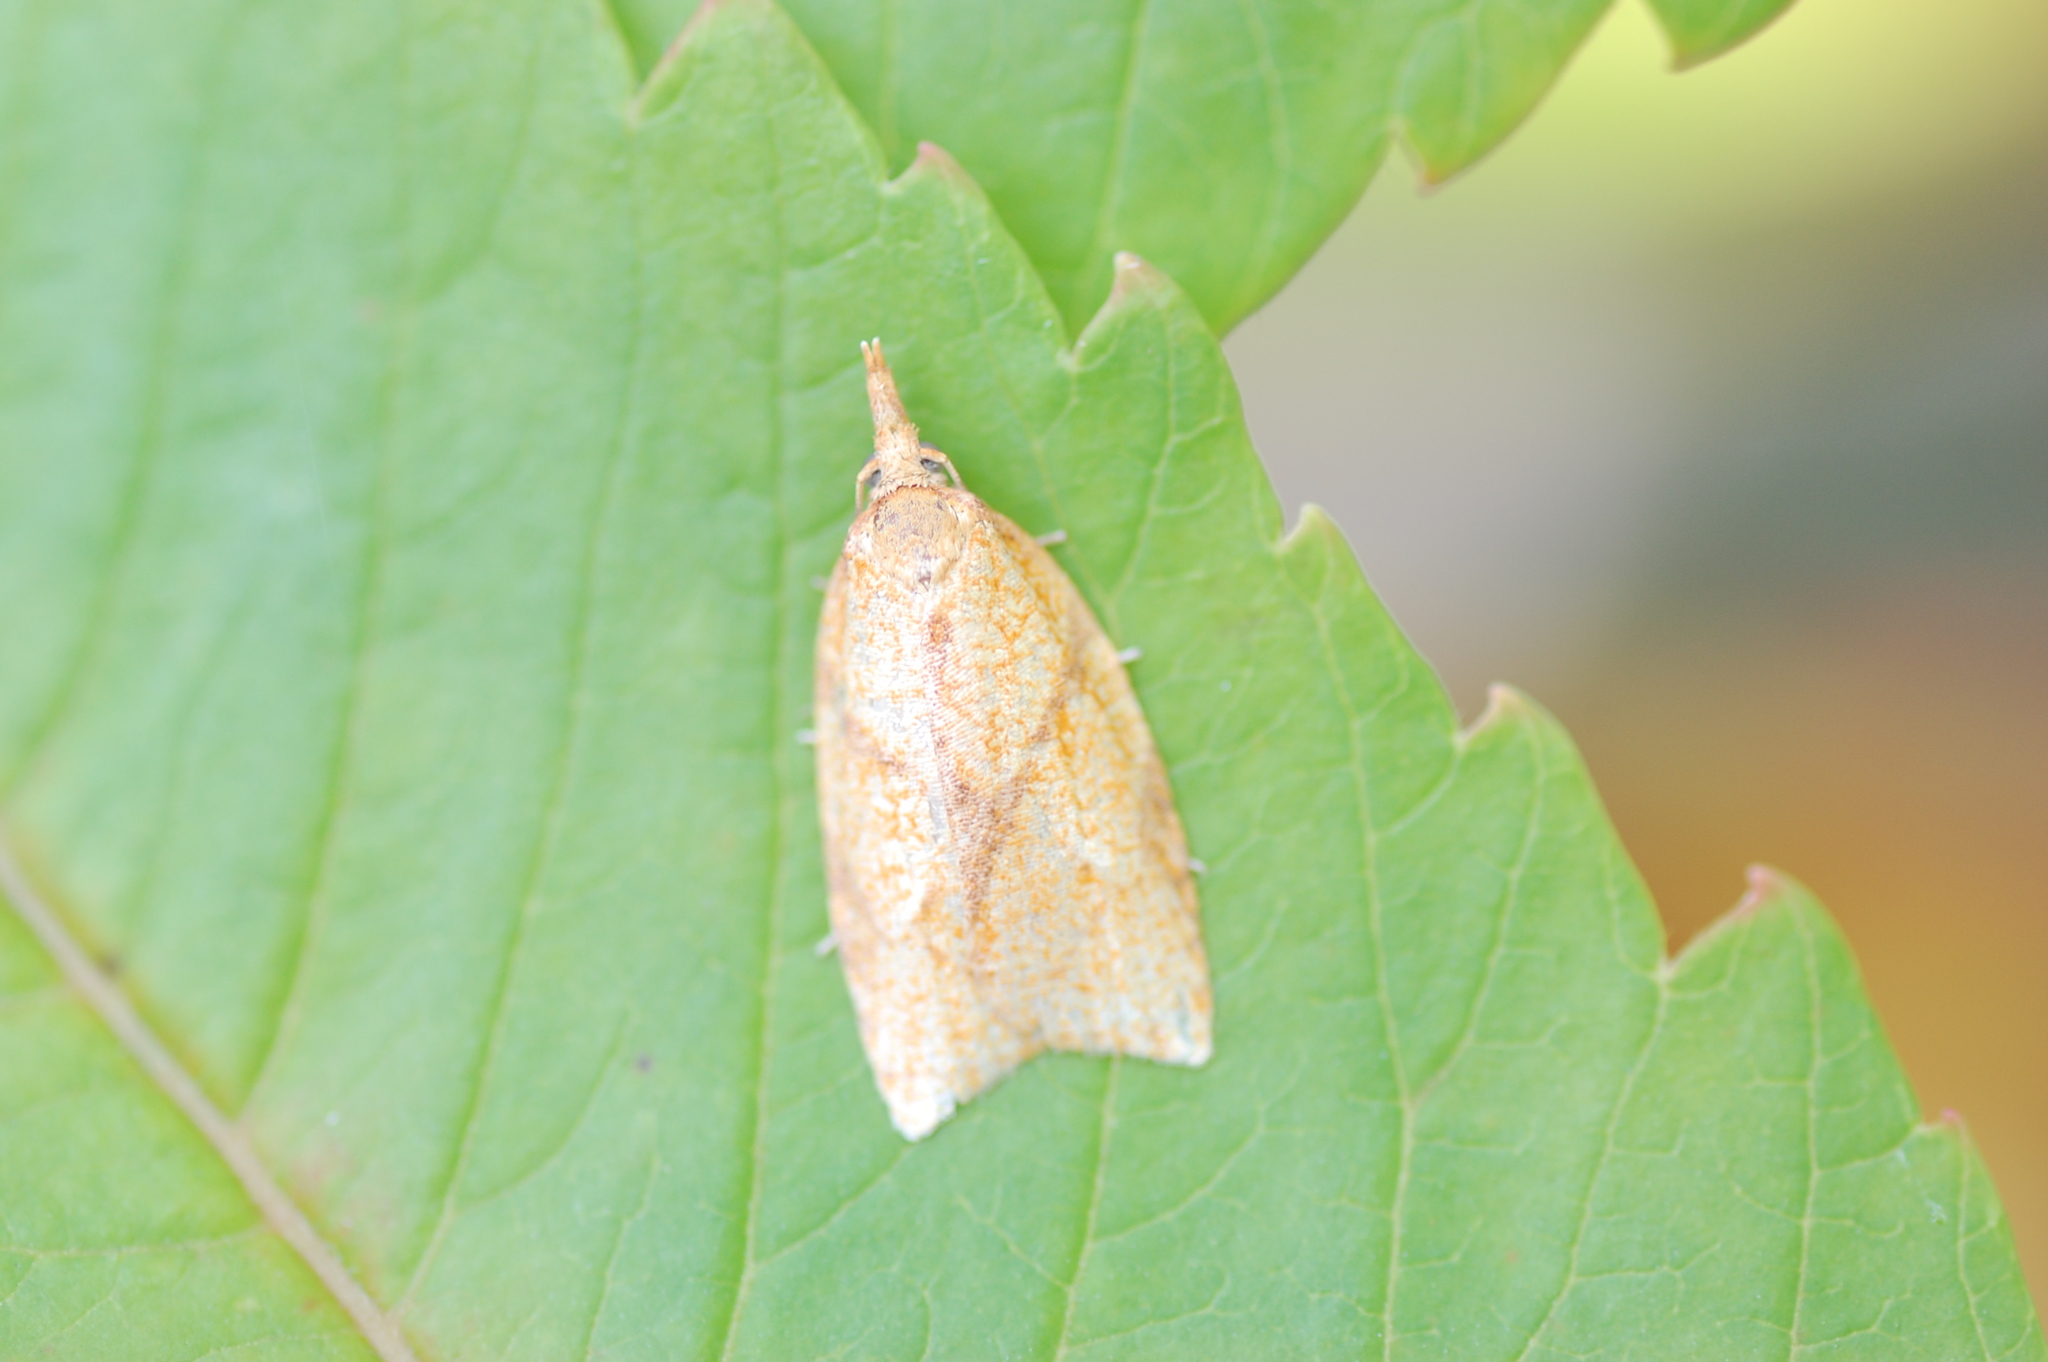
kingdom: Animalia
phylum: Arthropoda
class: Insecta
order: Lepidoptera
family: Tortricidae
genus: Cenopis
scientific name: Cenopis reticulatana
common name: Reticulated fruitworm moth
